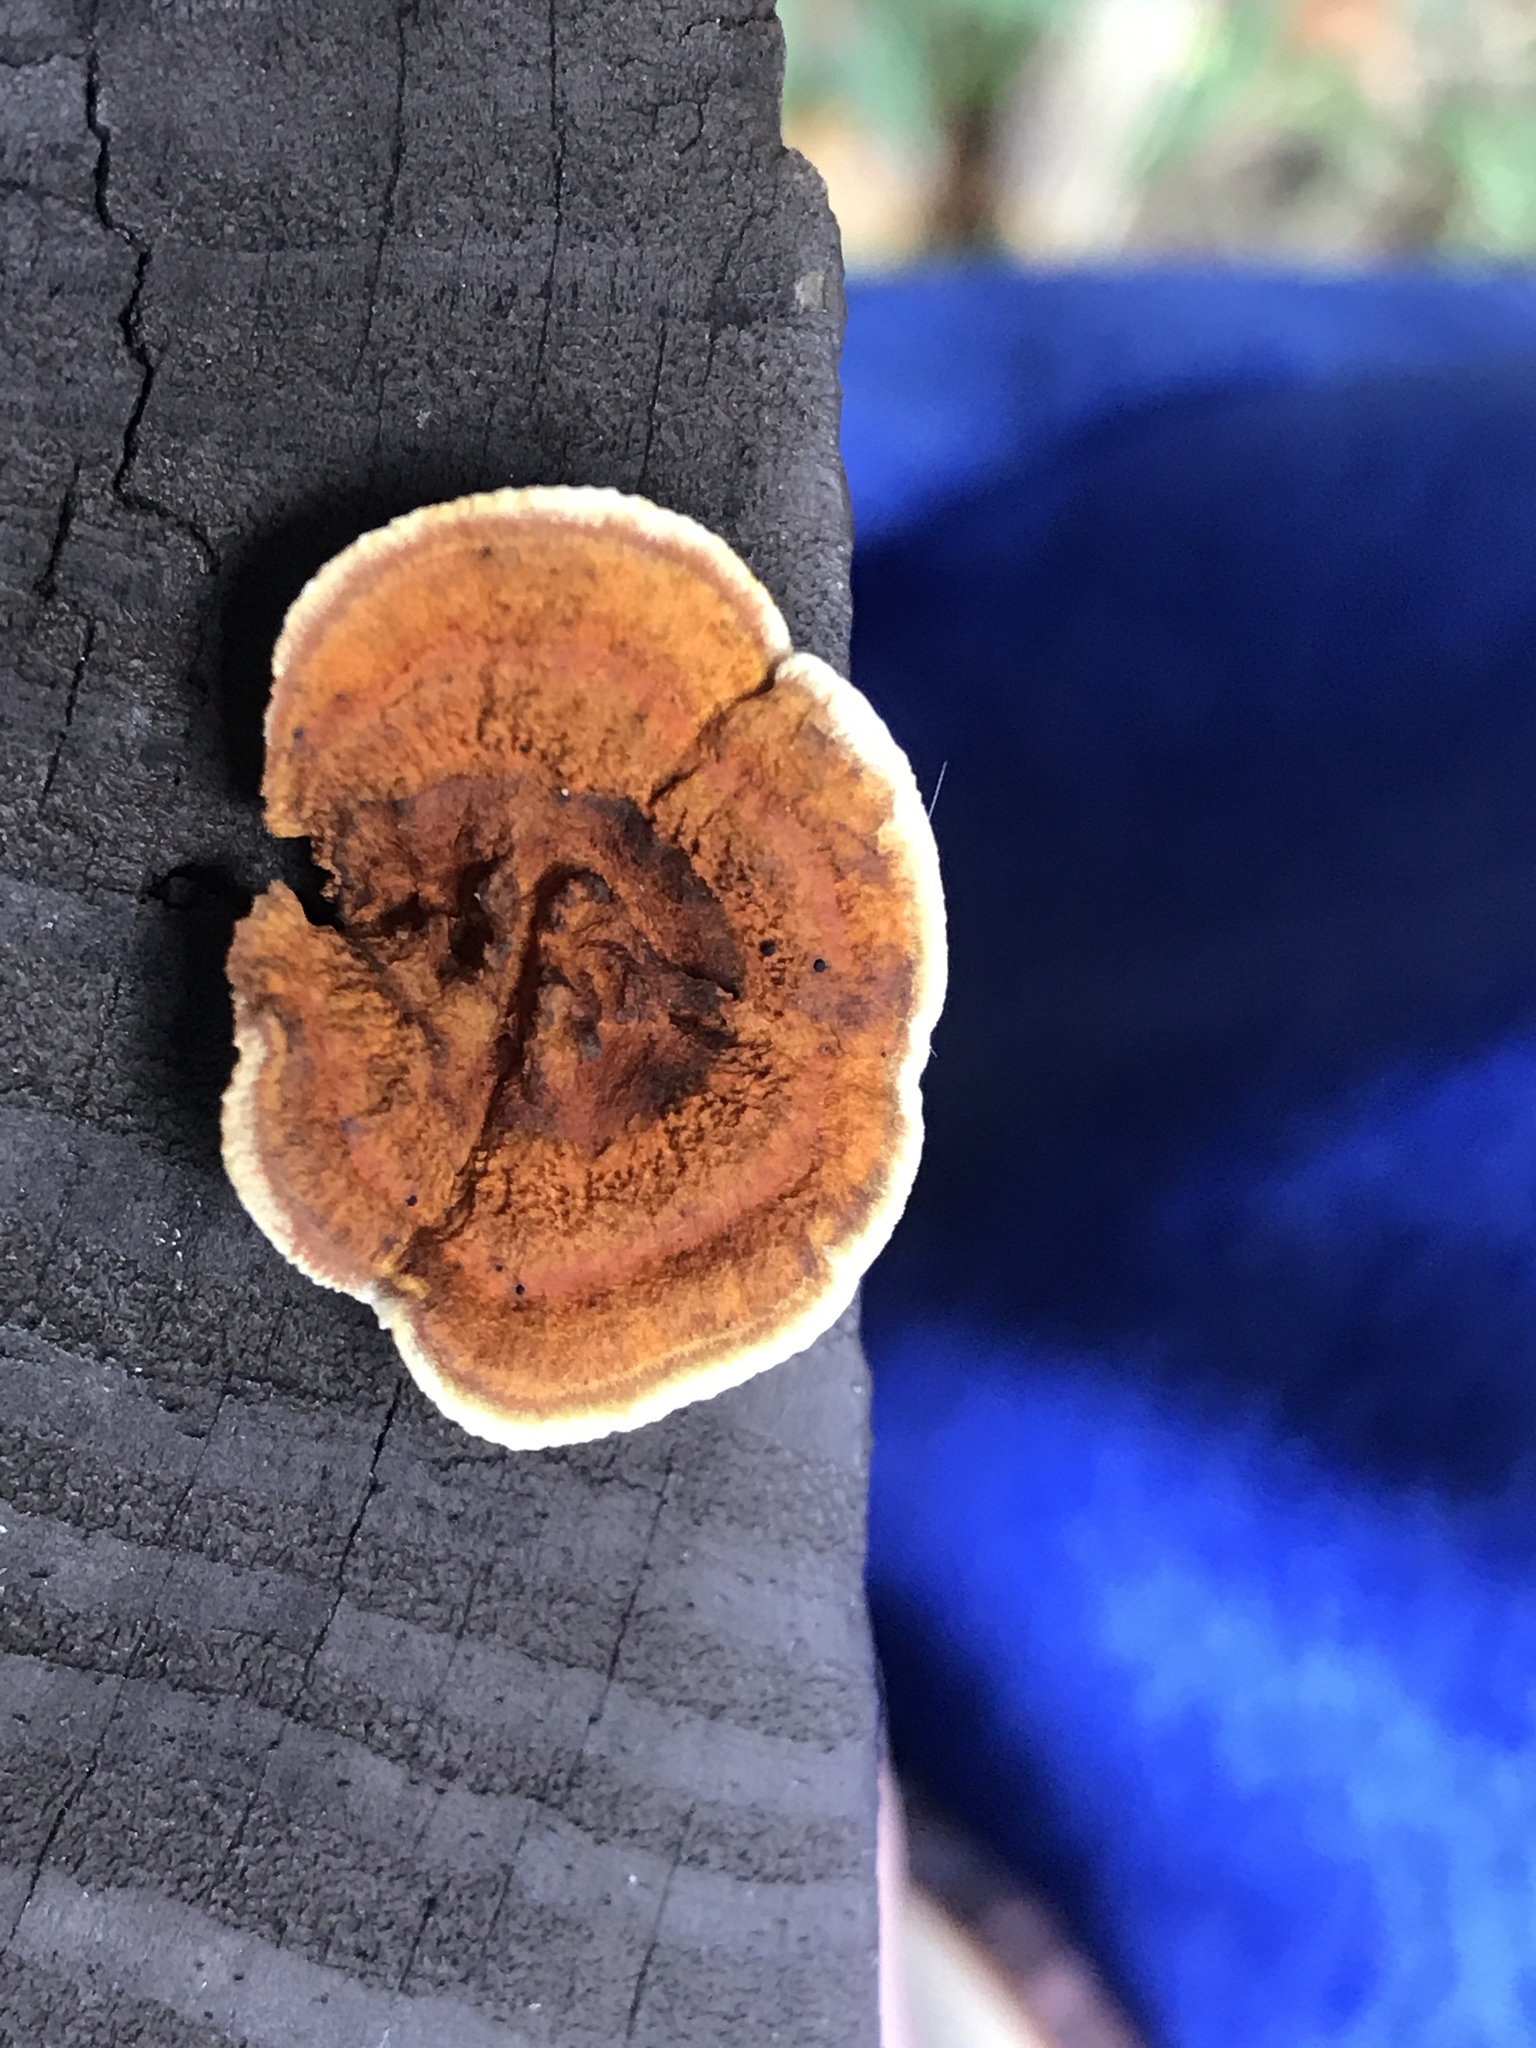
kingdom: Fungi
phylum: Basidiomycota
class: Agaricomycetes
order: Gloeophyllales
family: Gloeophyllaceae
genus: Gloeophyllum
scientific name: Gloeophyllum sepiarium
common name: Conifer mazegill
